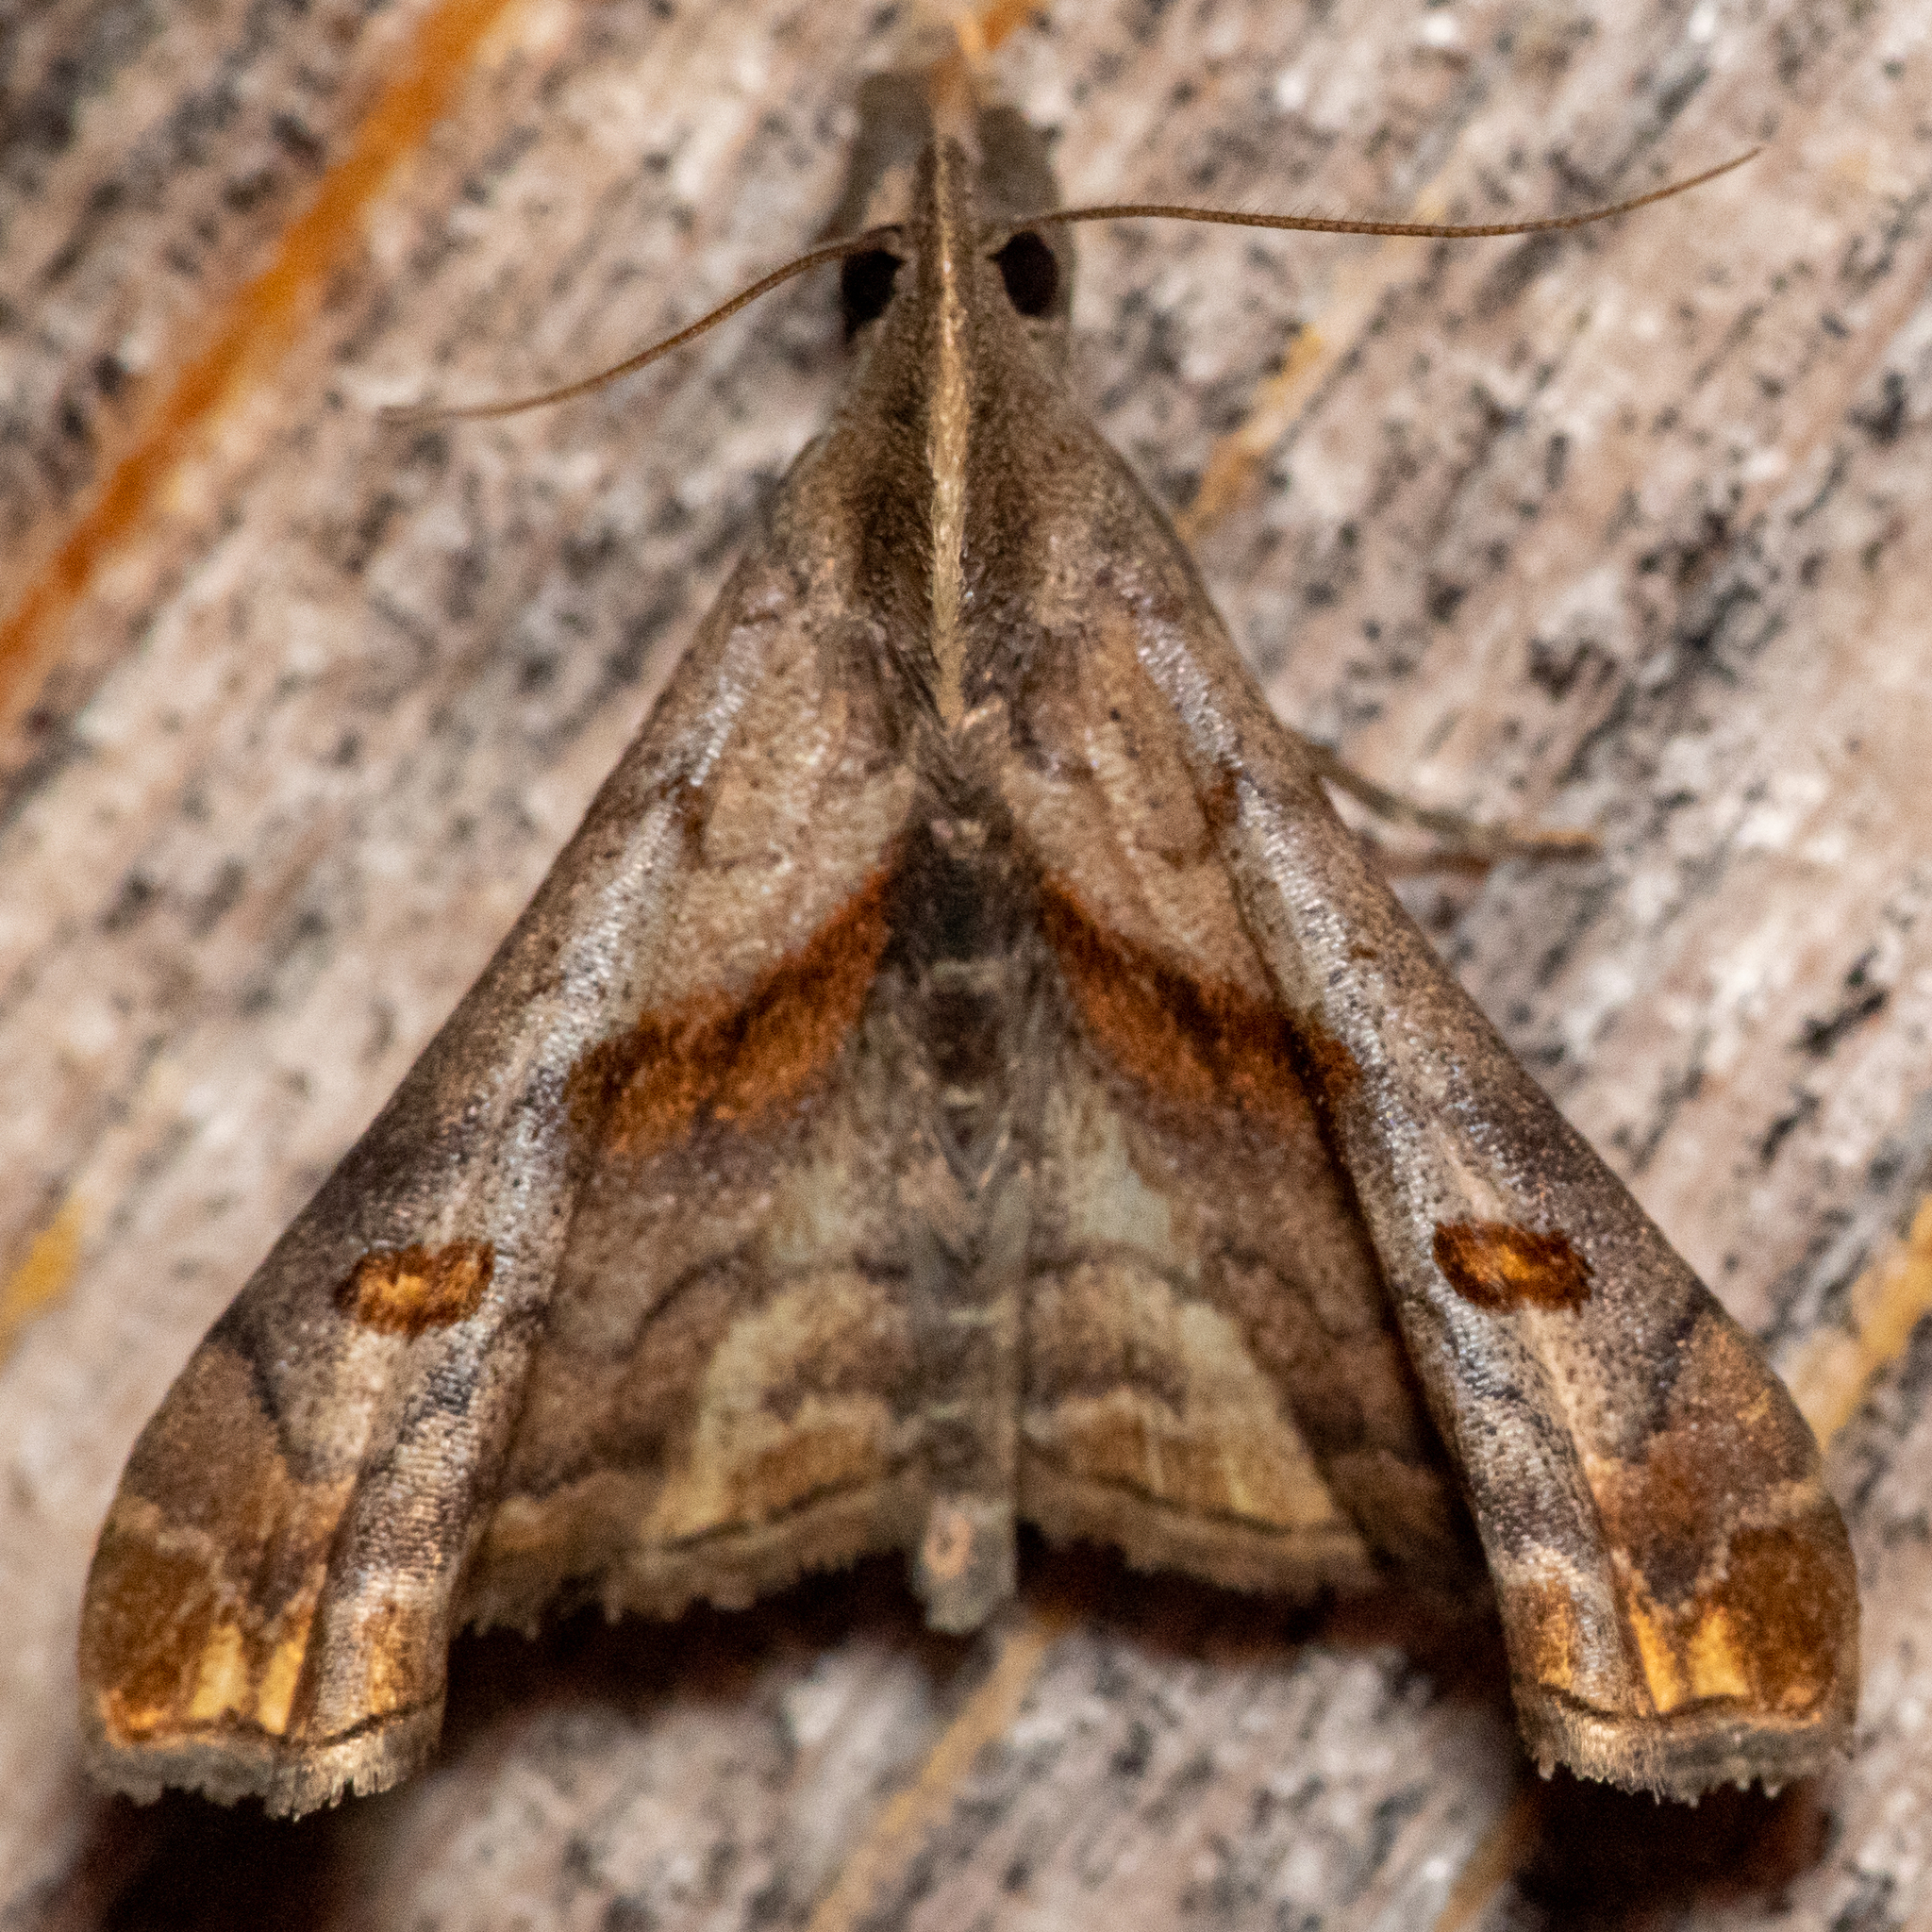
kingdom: Animalia
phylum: Arthropoda
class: Insecta
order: Lepidoptera
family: Erebidae
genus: Palthis
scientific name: Palthis angulalis
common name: Dark-spotted palthis moth
